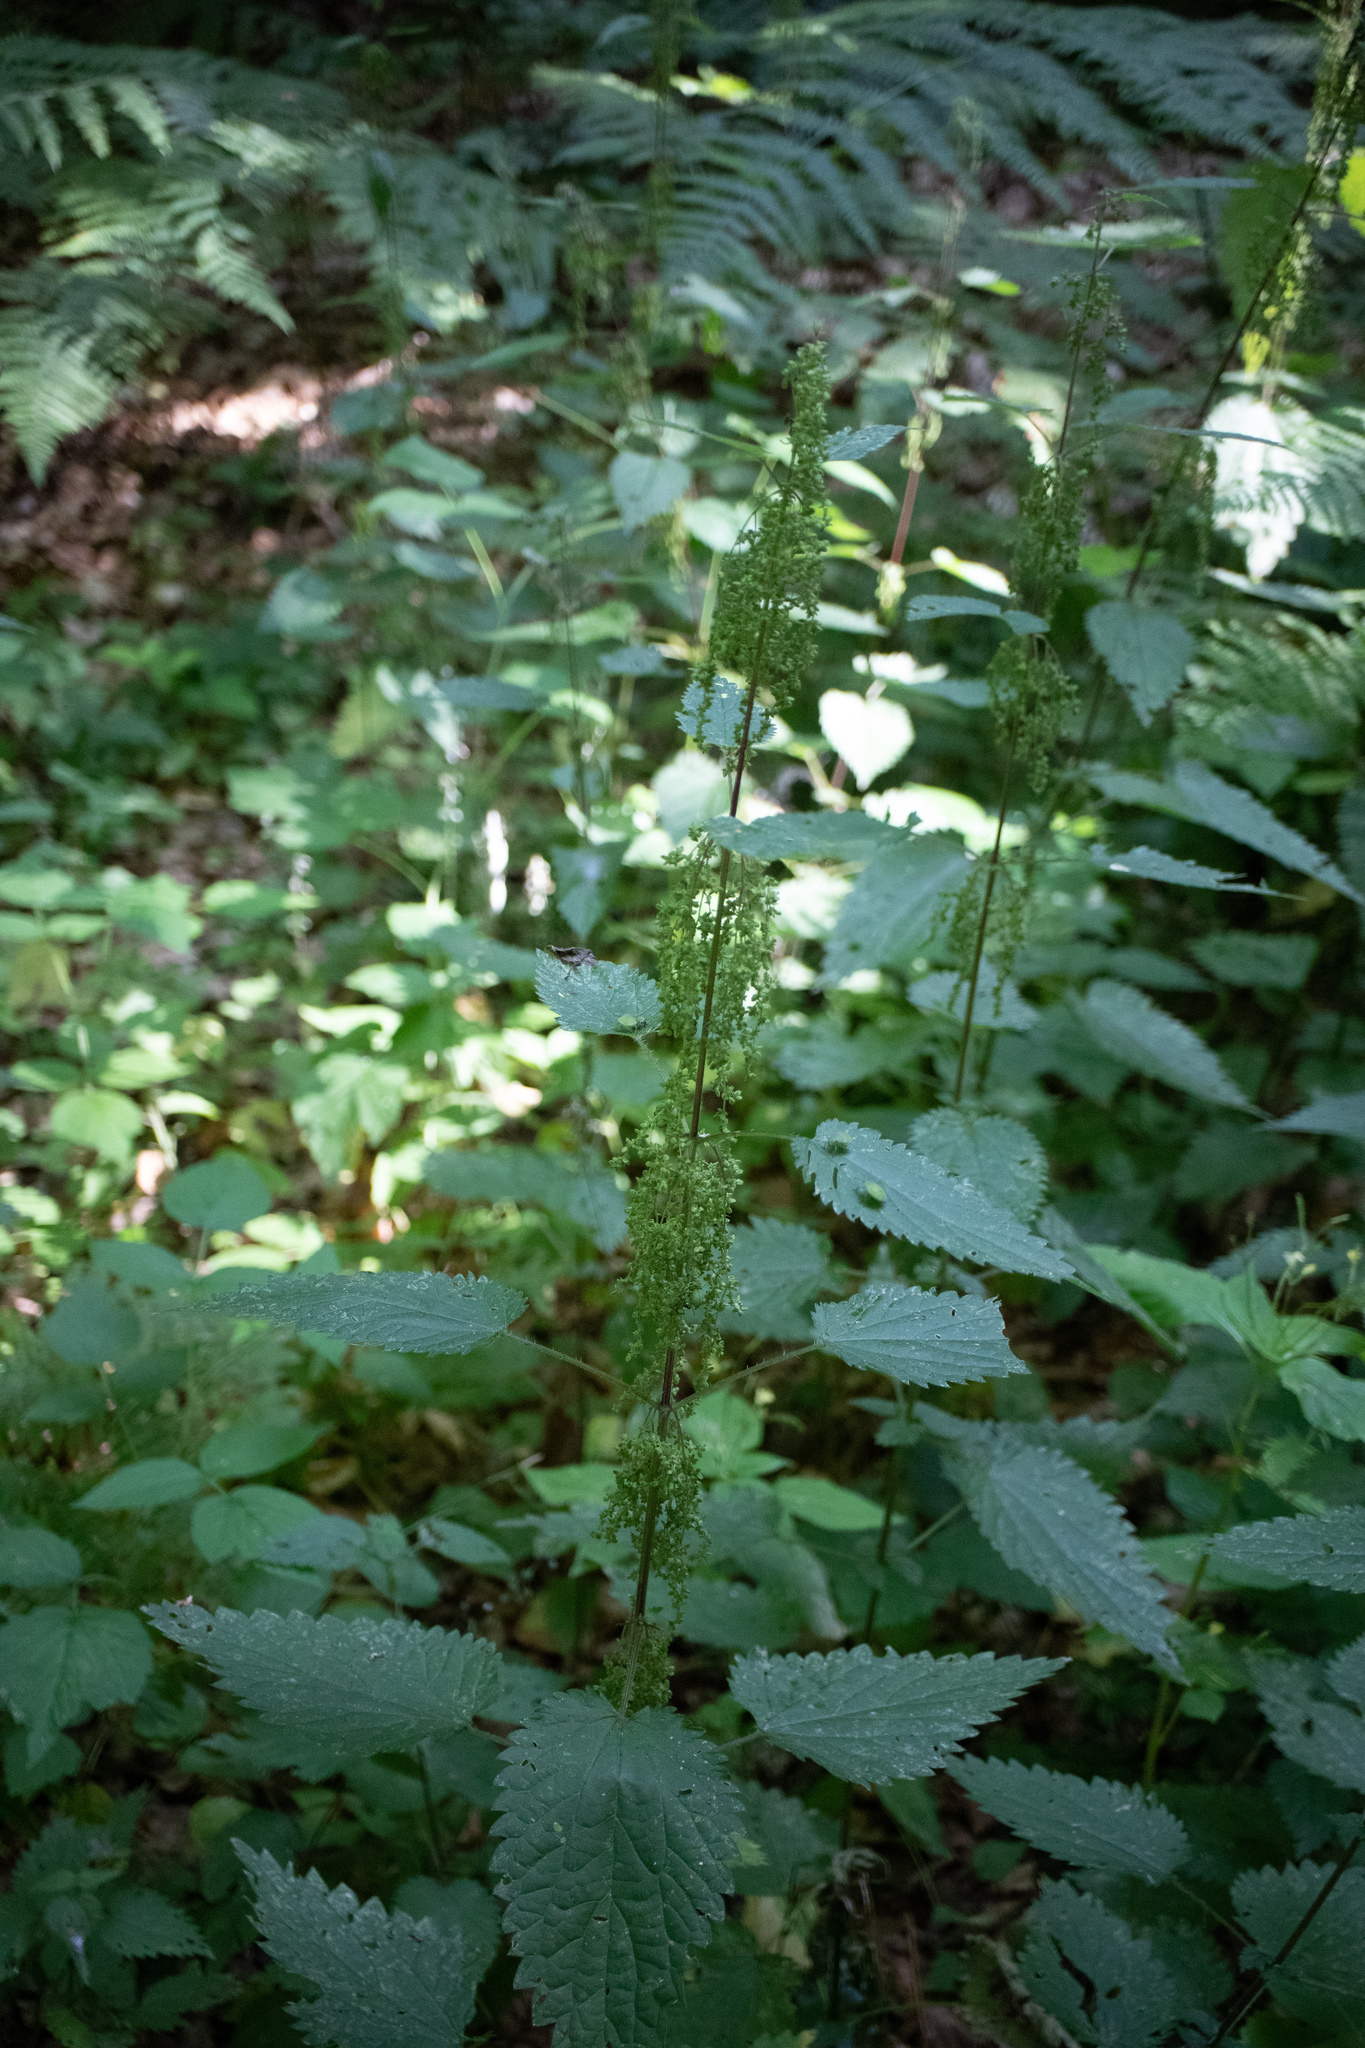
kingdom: Plantae
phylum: Tracheophyta
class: Magnoliopsida
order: Rosales
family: Urticaceae
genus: Urtica
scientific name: Urtica dioica
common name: Common nettle
